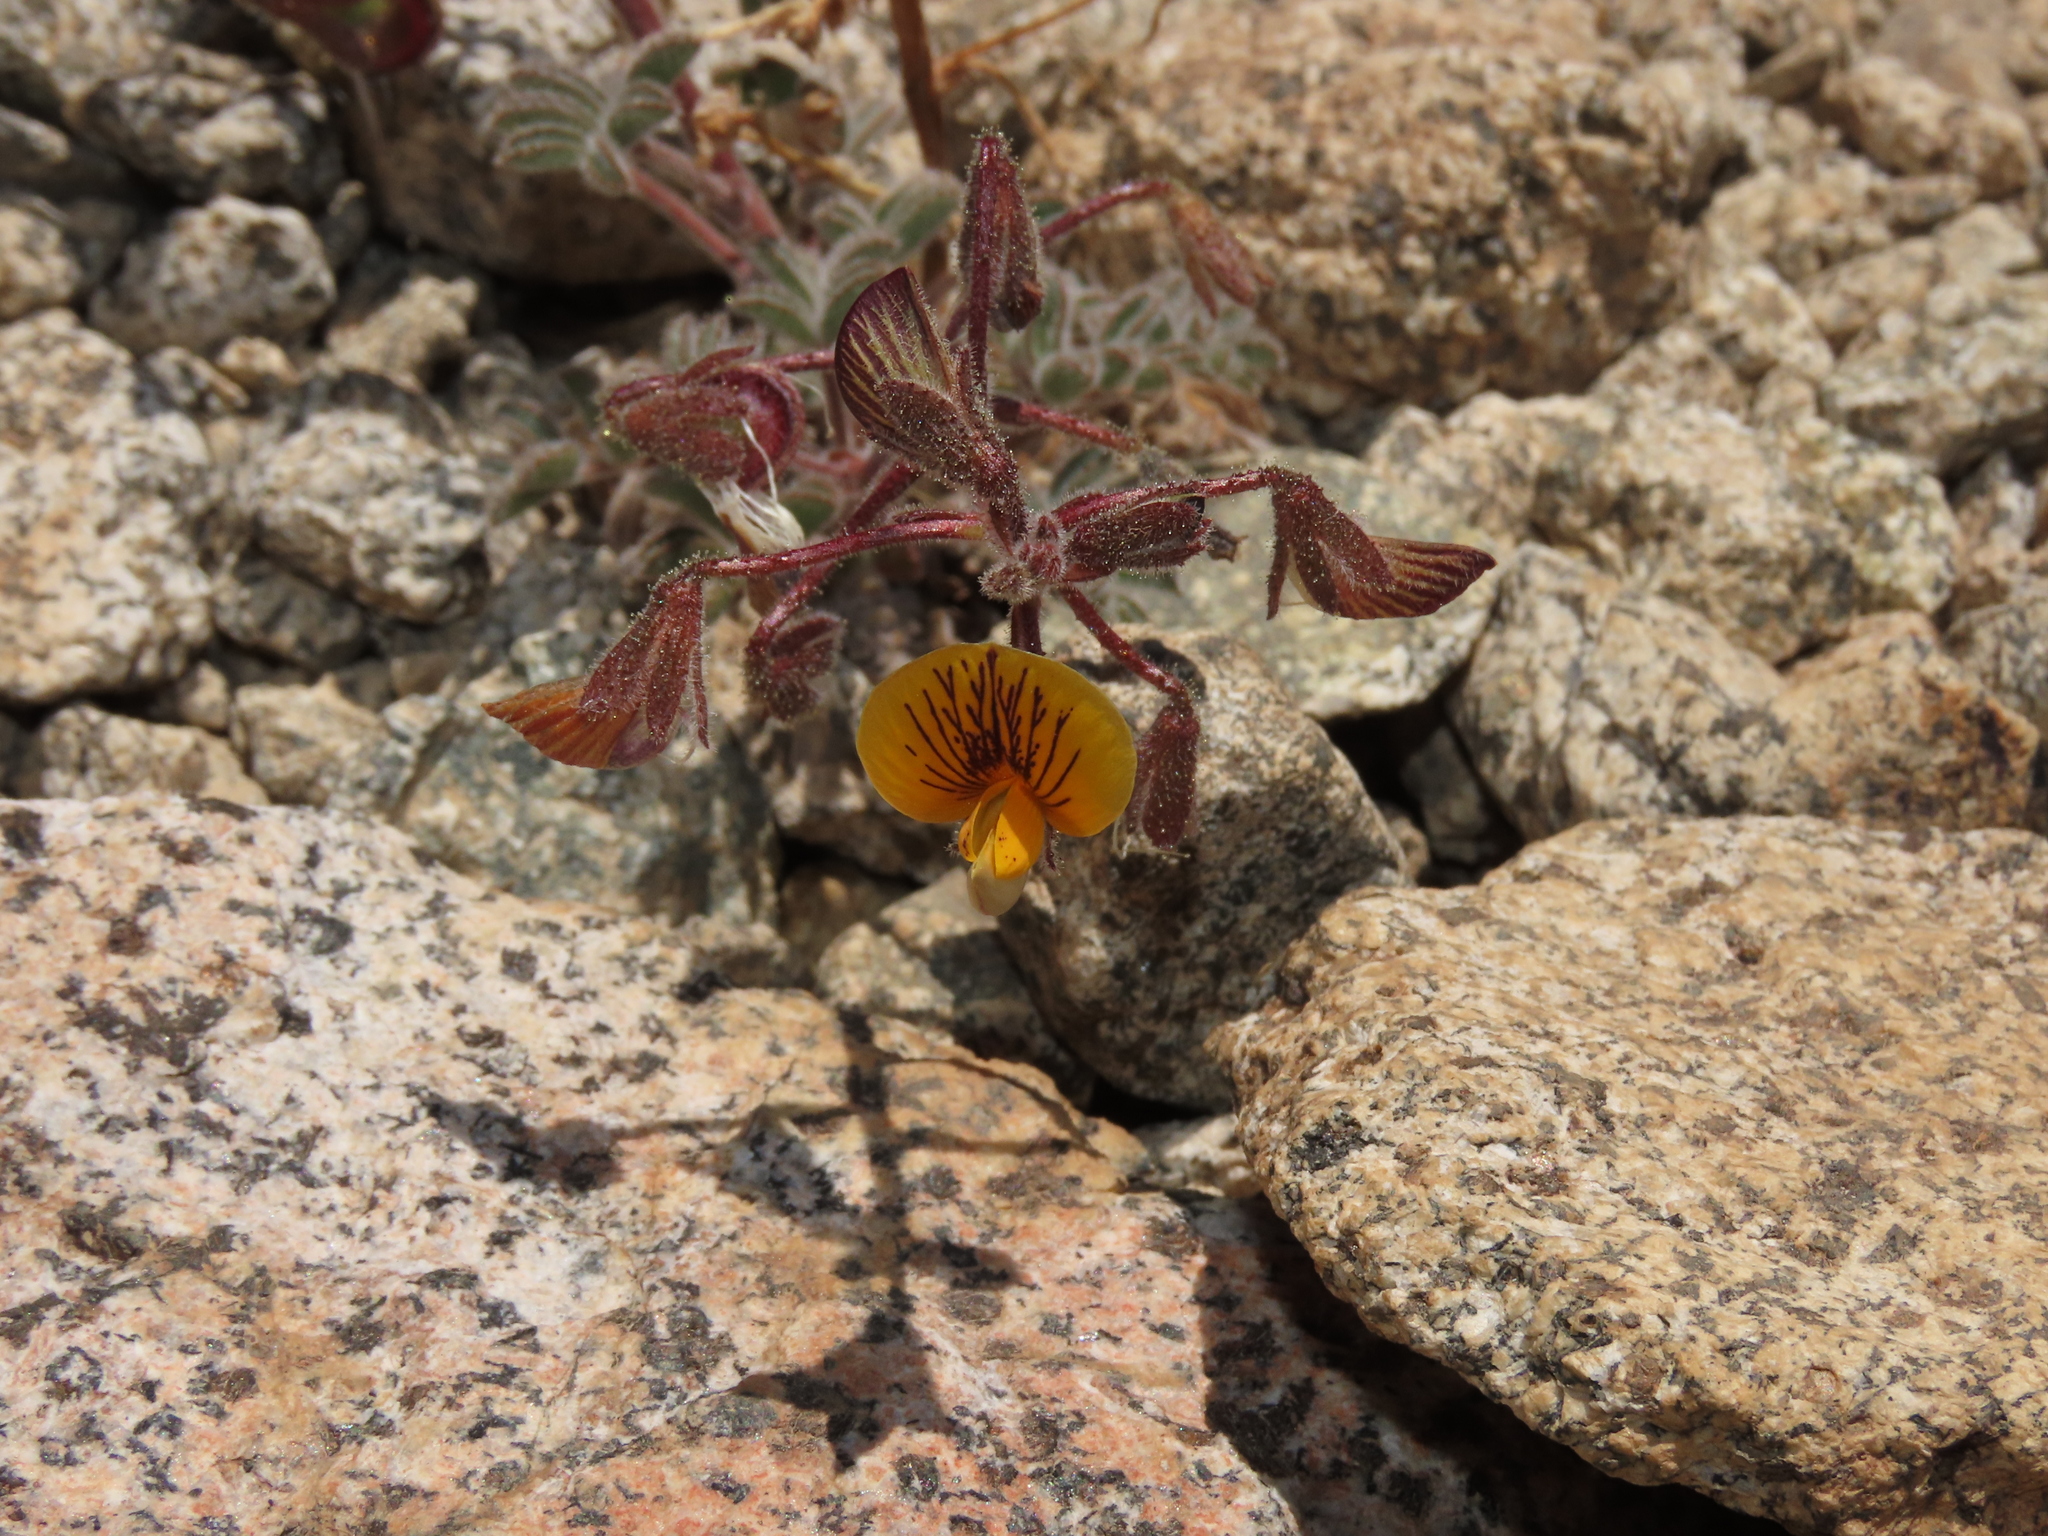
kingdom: Plantae
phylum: Tracheophyta
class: Magnoliopsida
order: Fabales
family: Fabaceae
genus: Adesmia
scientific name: Adesmia jilesiana
